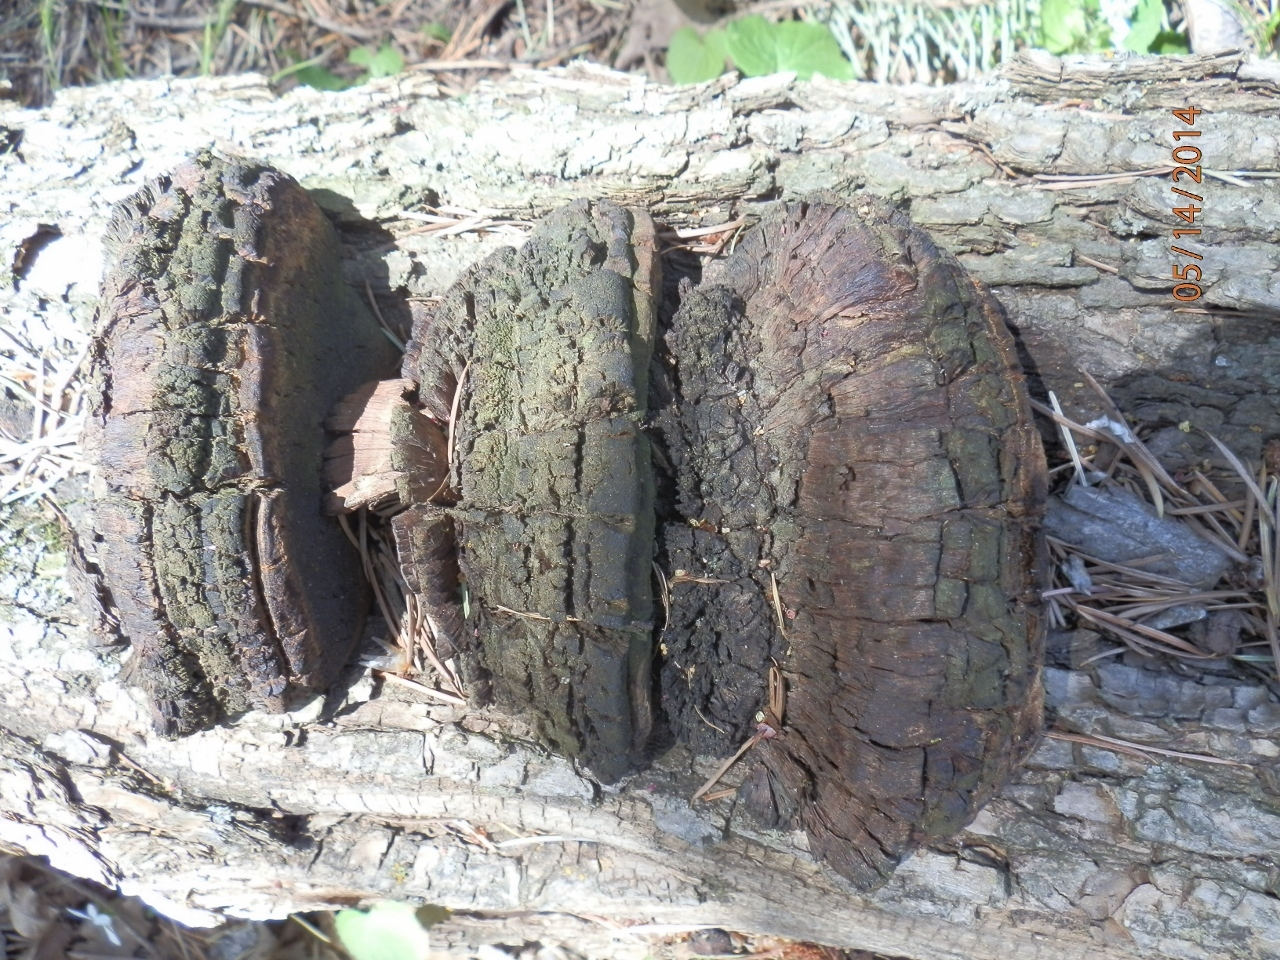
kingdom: Fungi
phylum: Basidiomycota
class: Agaricomycetes
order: Hymenochaetales
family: Hymenochaetaceae
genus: Meganotus
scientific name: Meganotus everhartii
